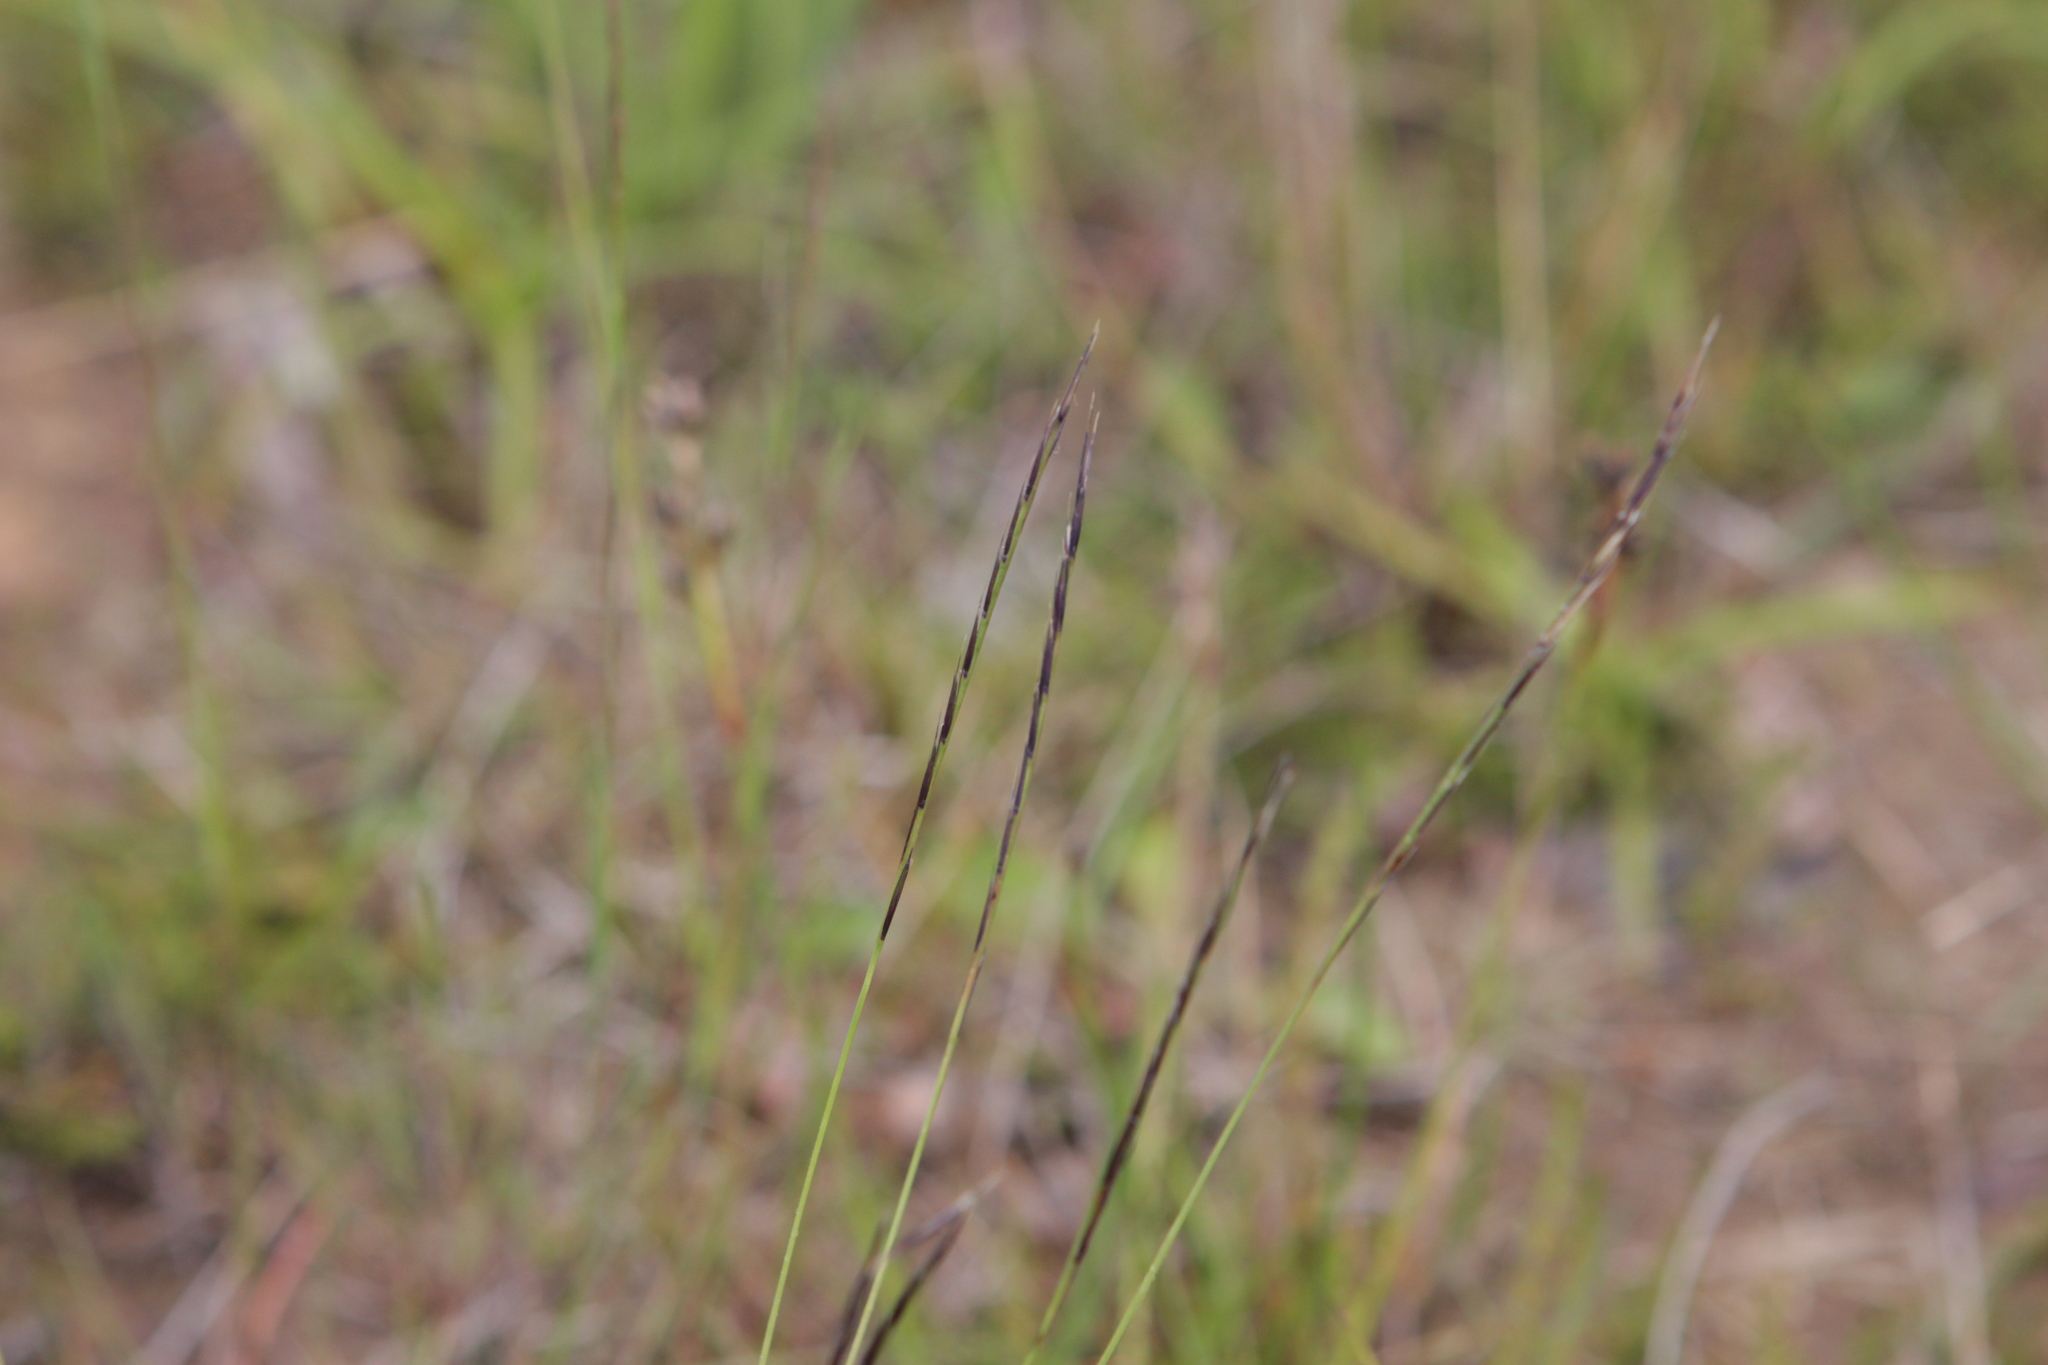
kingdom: Plantae
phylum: Tracheophyta
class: Liliopsida
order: Poales
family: Poaceae
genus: Nardus
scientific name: Nardus stricta
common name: Mat-grass
